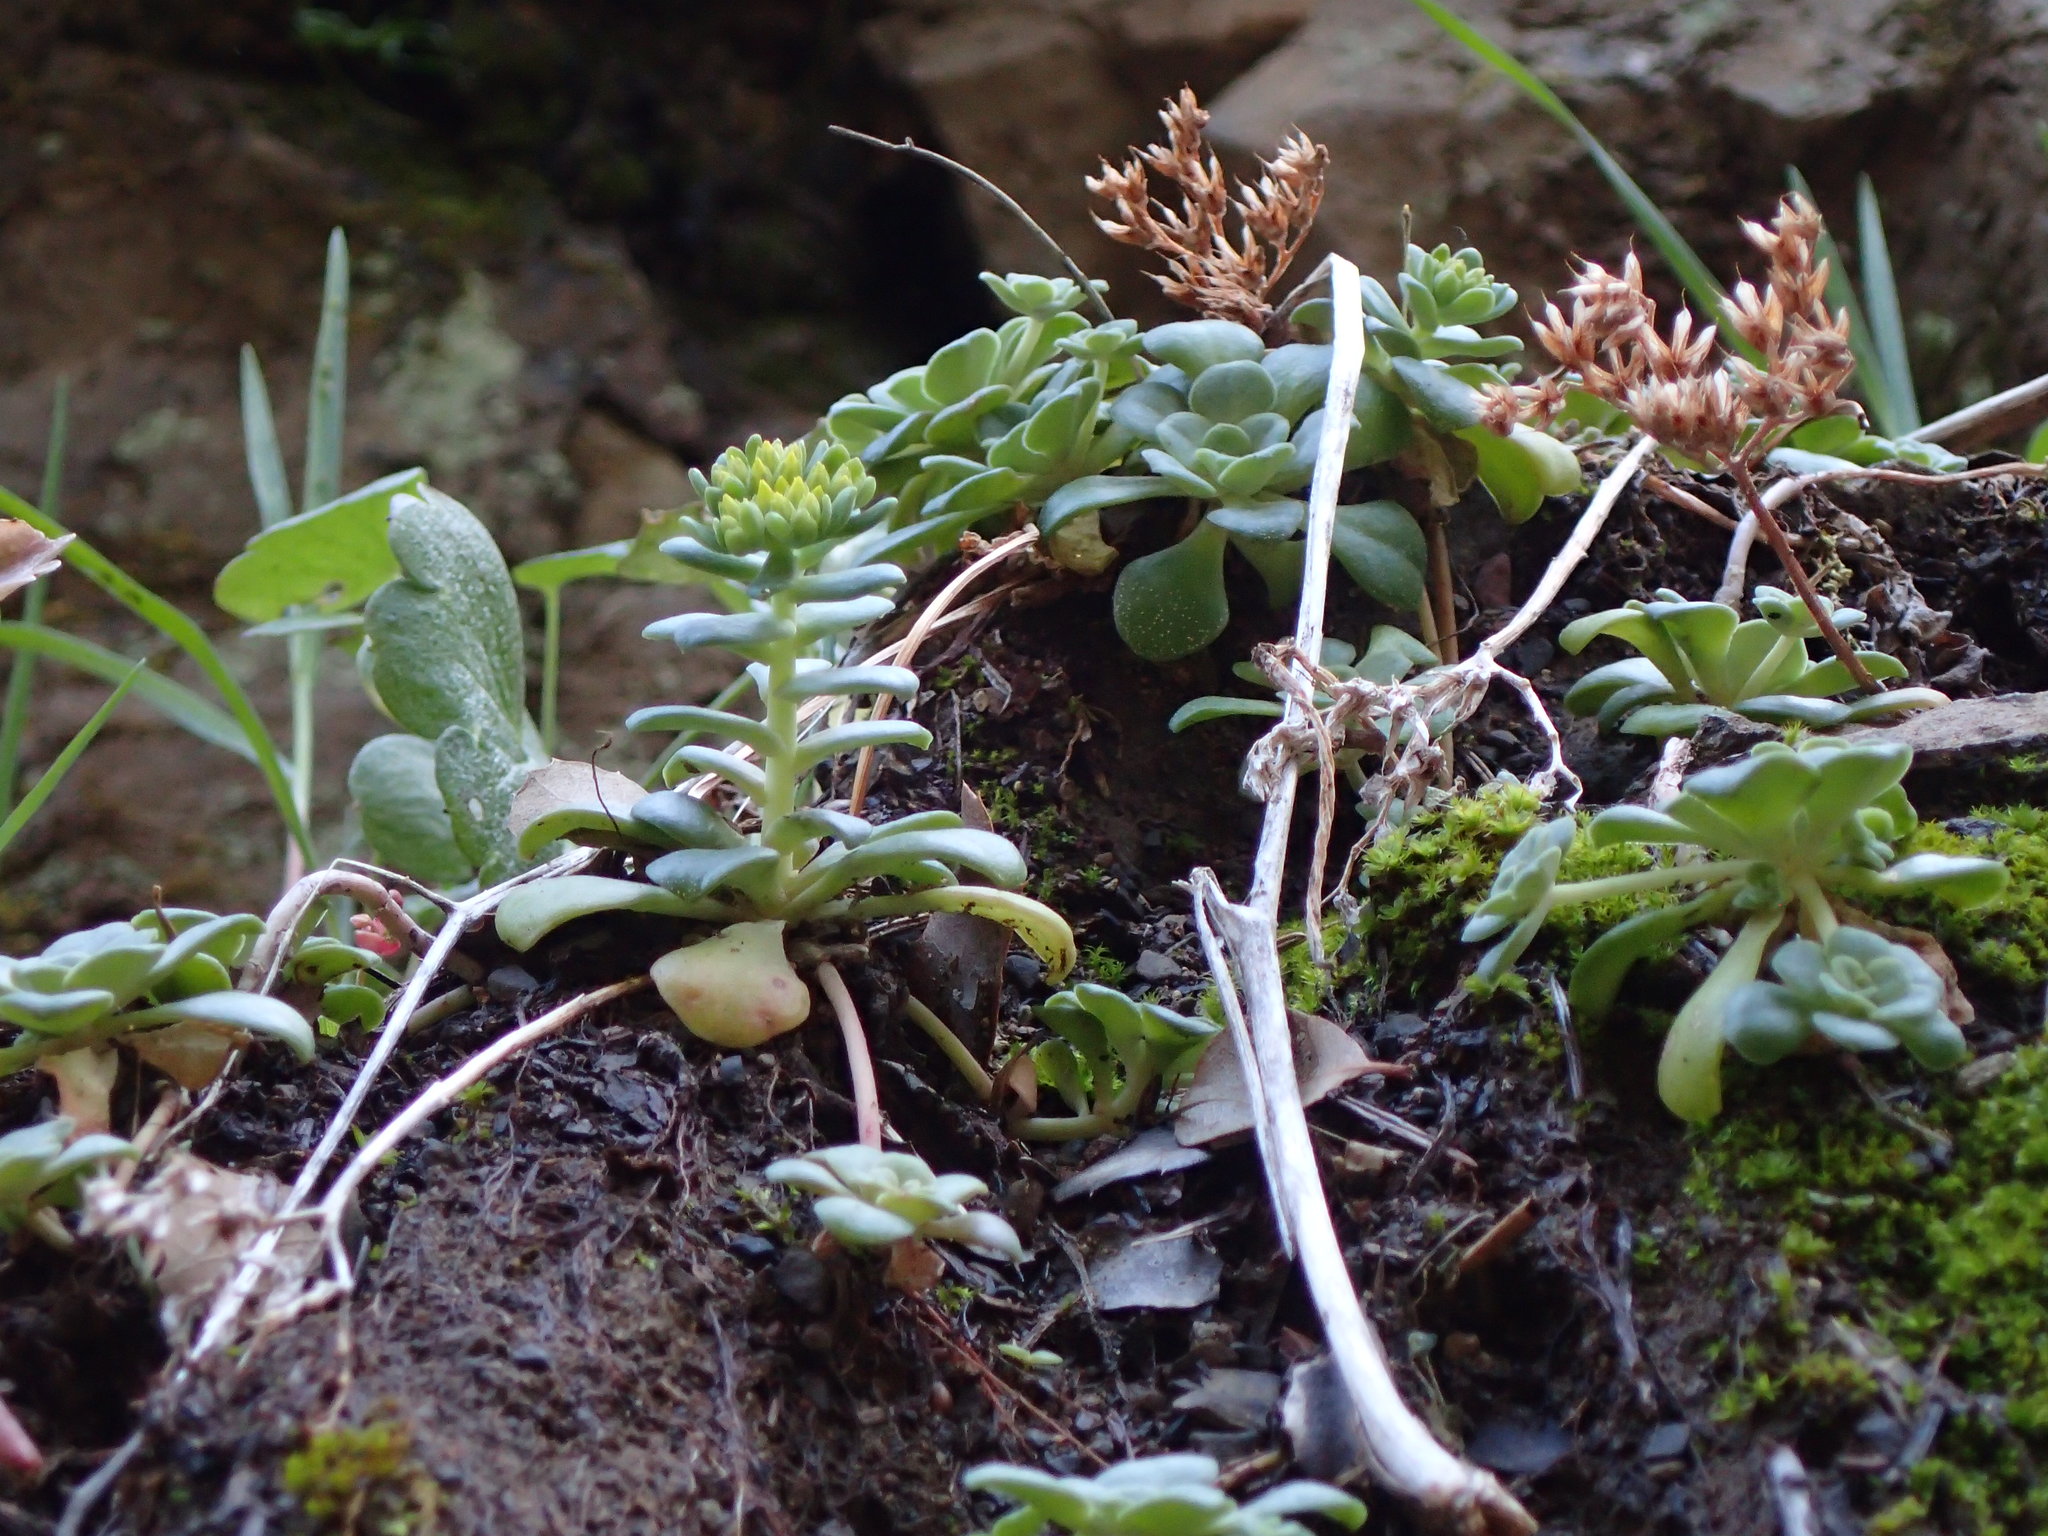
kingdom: Plantae
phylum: Tracheophyta
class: Magnoliopsida
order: Saxifragales
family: Crassulaceae
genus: Sedum
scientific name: Sedum spathulifolium
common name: Colorado stonecrop
